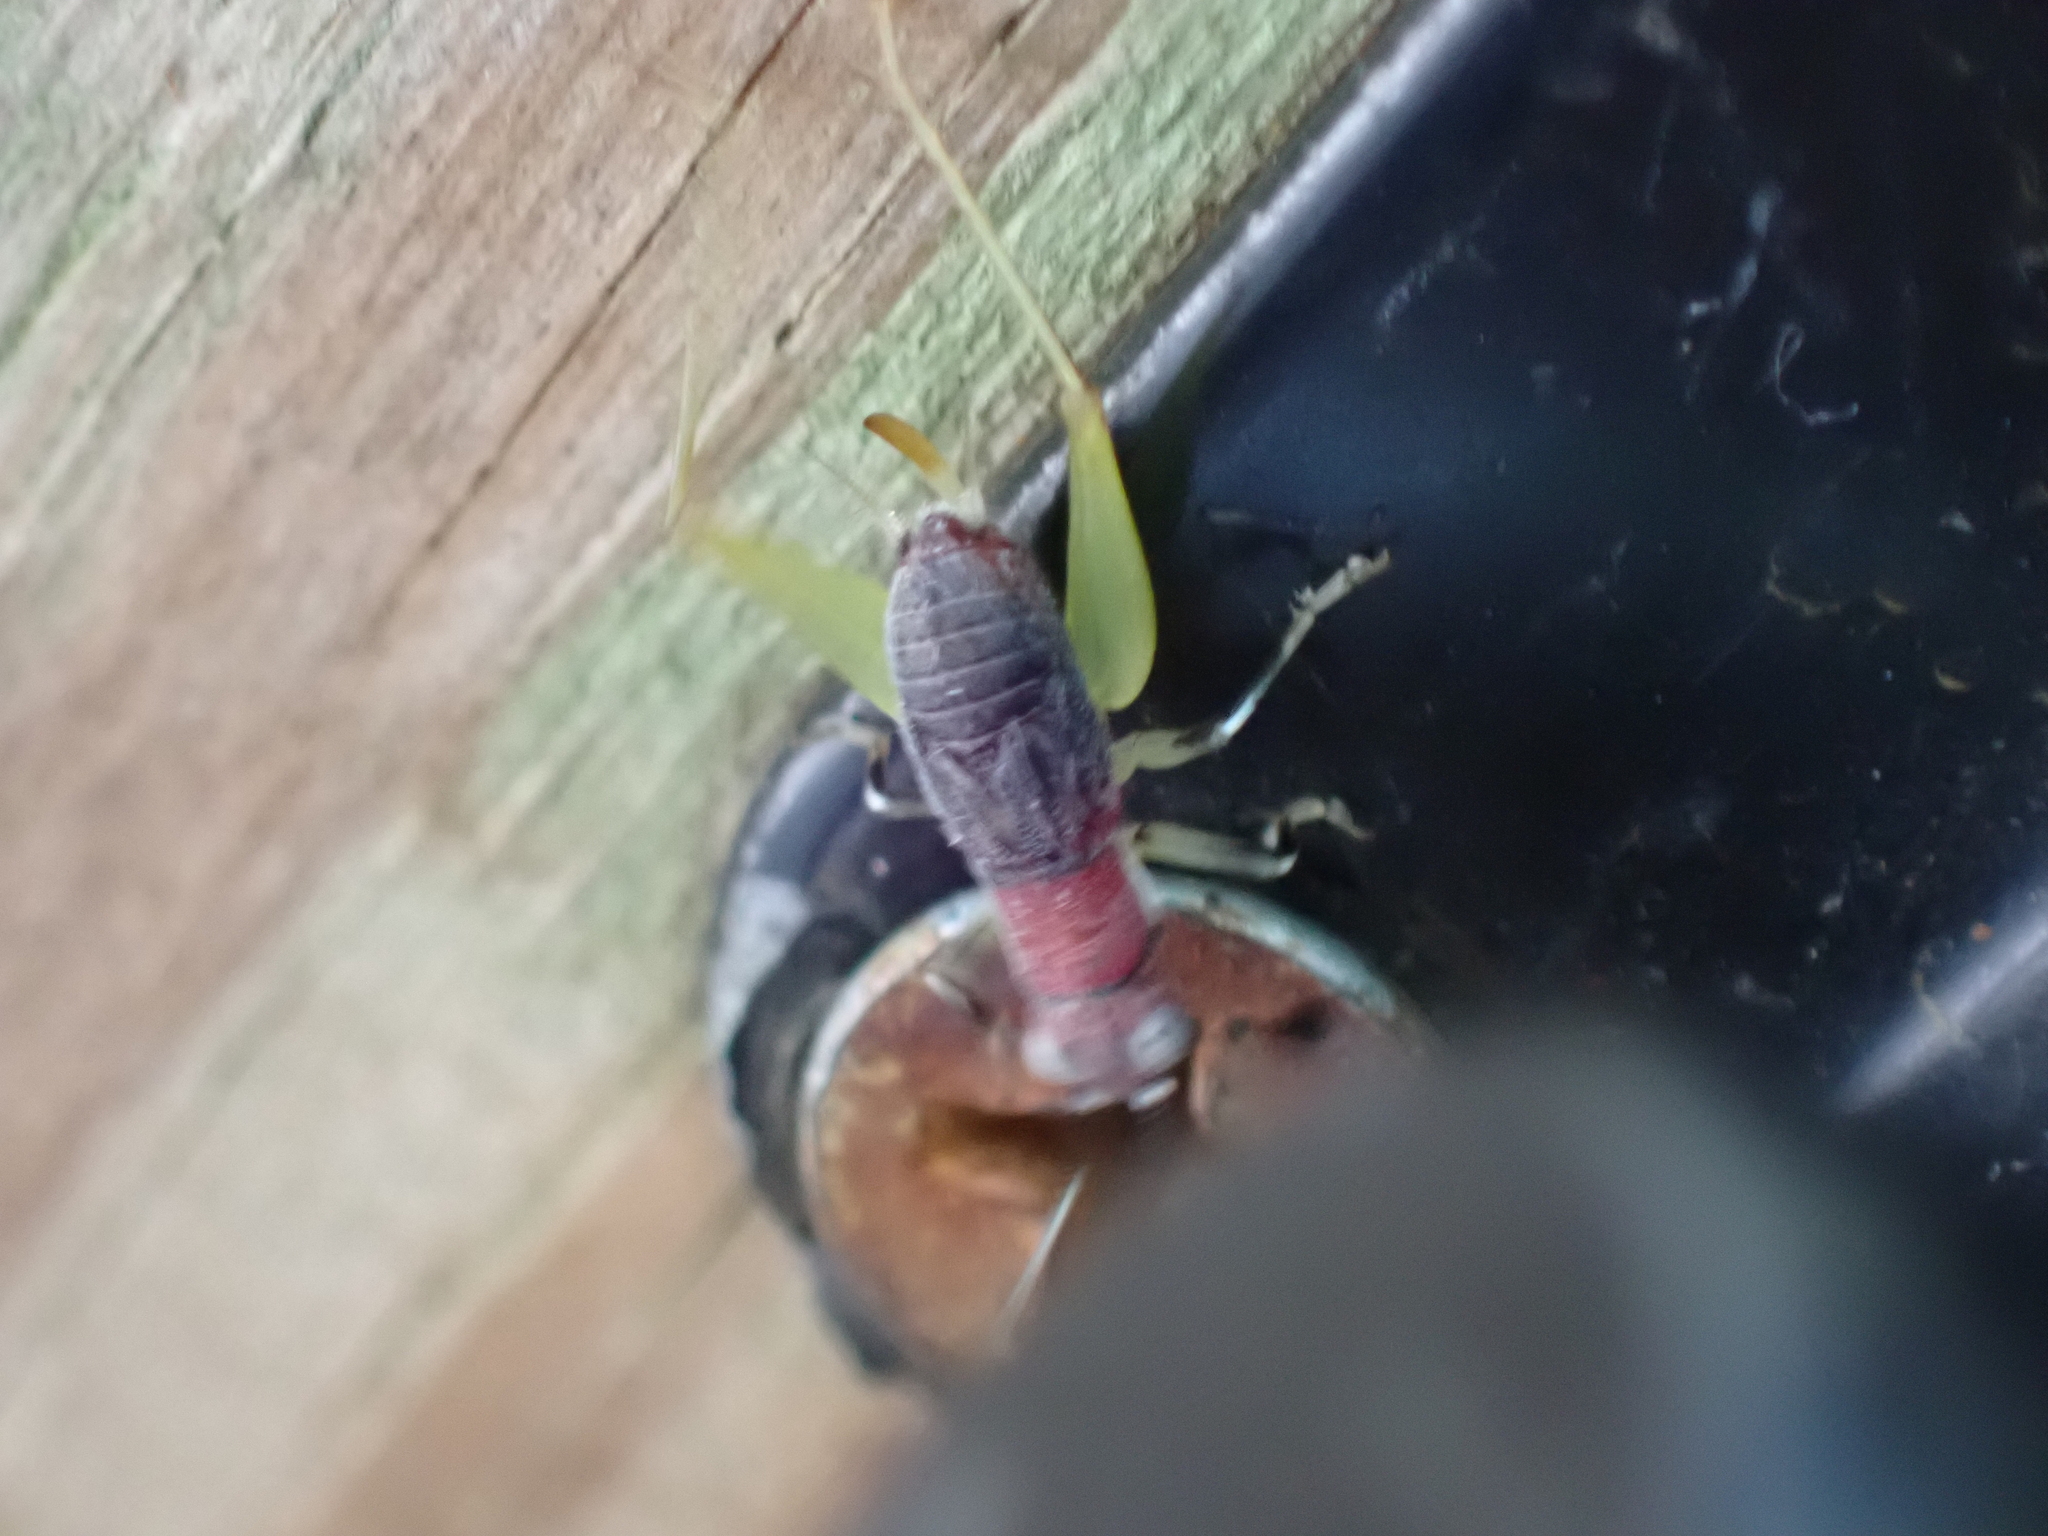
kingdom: Animalia
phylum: Arthropoda
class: Insecta
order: Orthoptera
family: Trigonidiidae
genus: Phyllopalpus
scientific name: Phyllopalpus pulchellus
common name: Handsome trig
